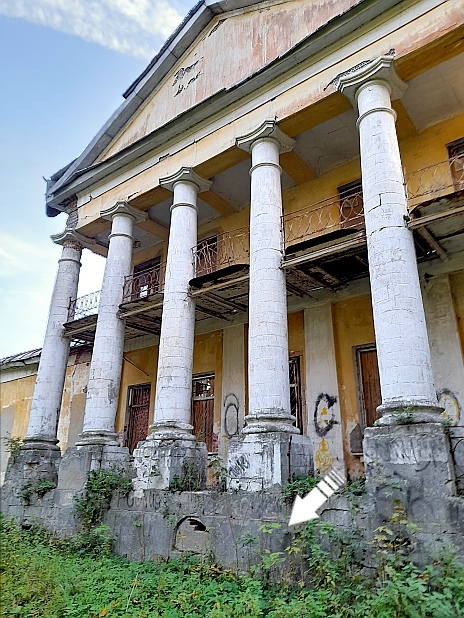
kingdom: Plantae
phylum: Tracheophyta
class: Magnoliopsida
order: Sapindales
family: Sapindaceae
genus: Acer
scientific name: Acer platanoides
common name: Norway maple
